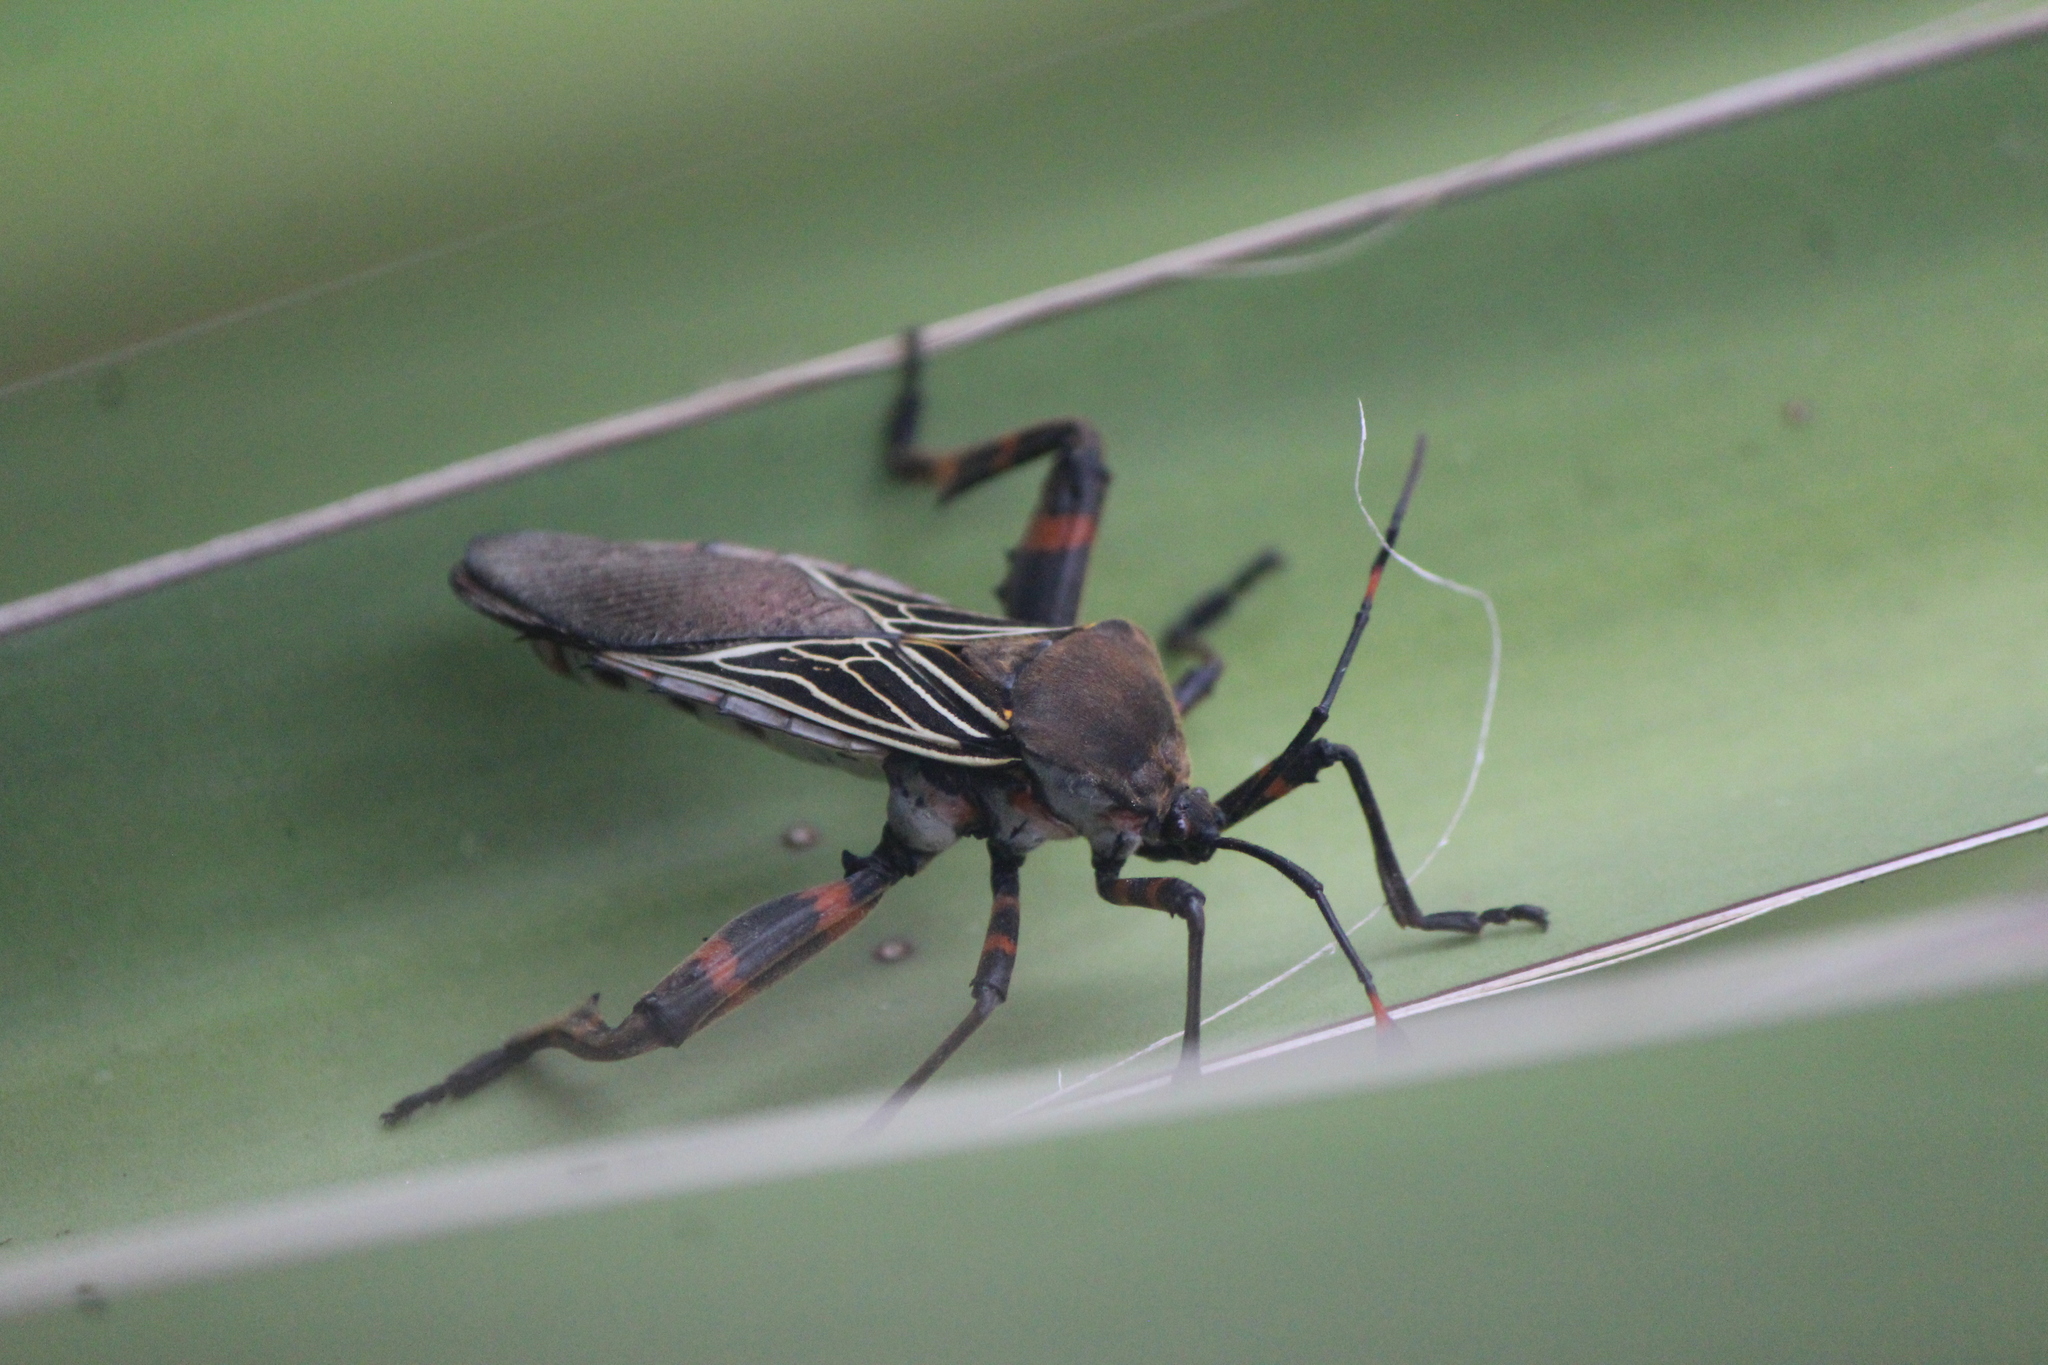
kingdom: Animalia
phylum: Arthropoda
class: Insecta
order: Hemiptera
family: Coreidae
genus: Thasus
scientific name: Thasus
